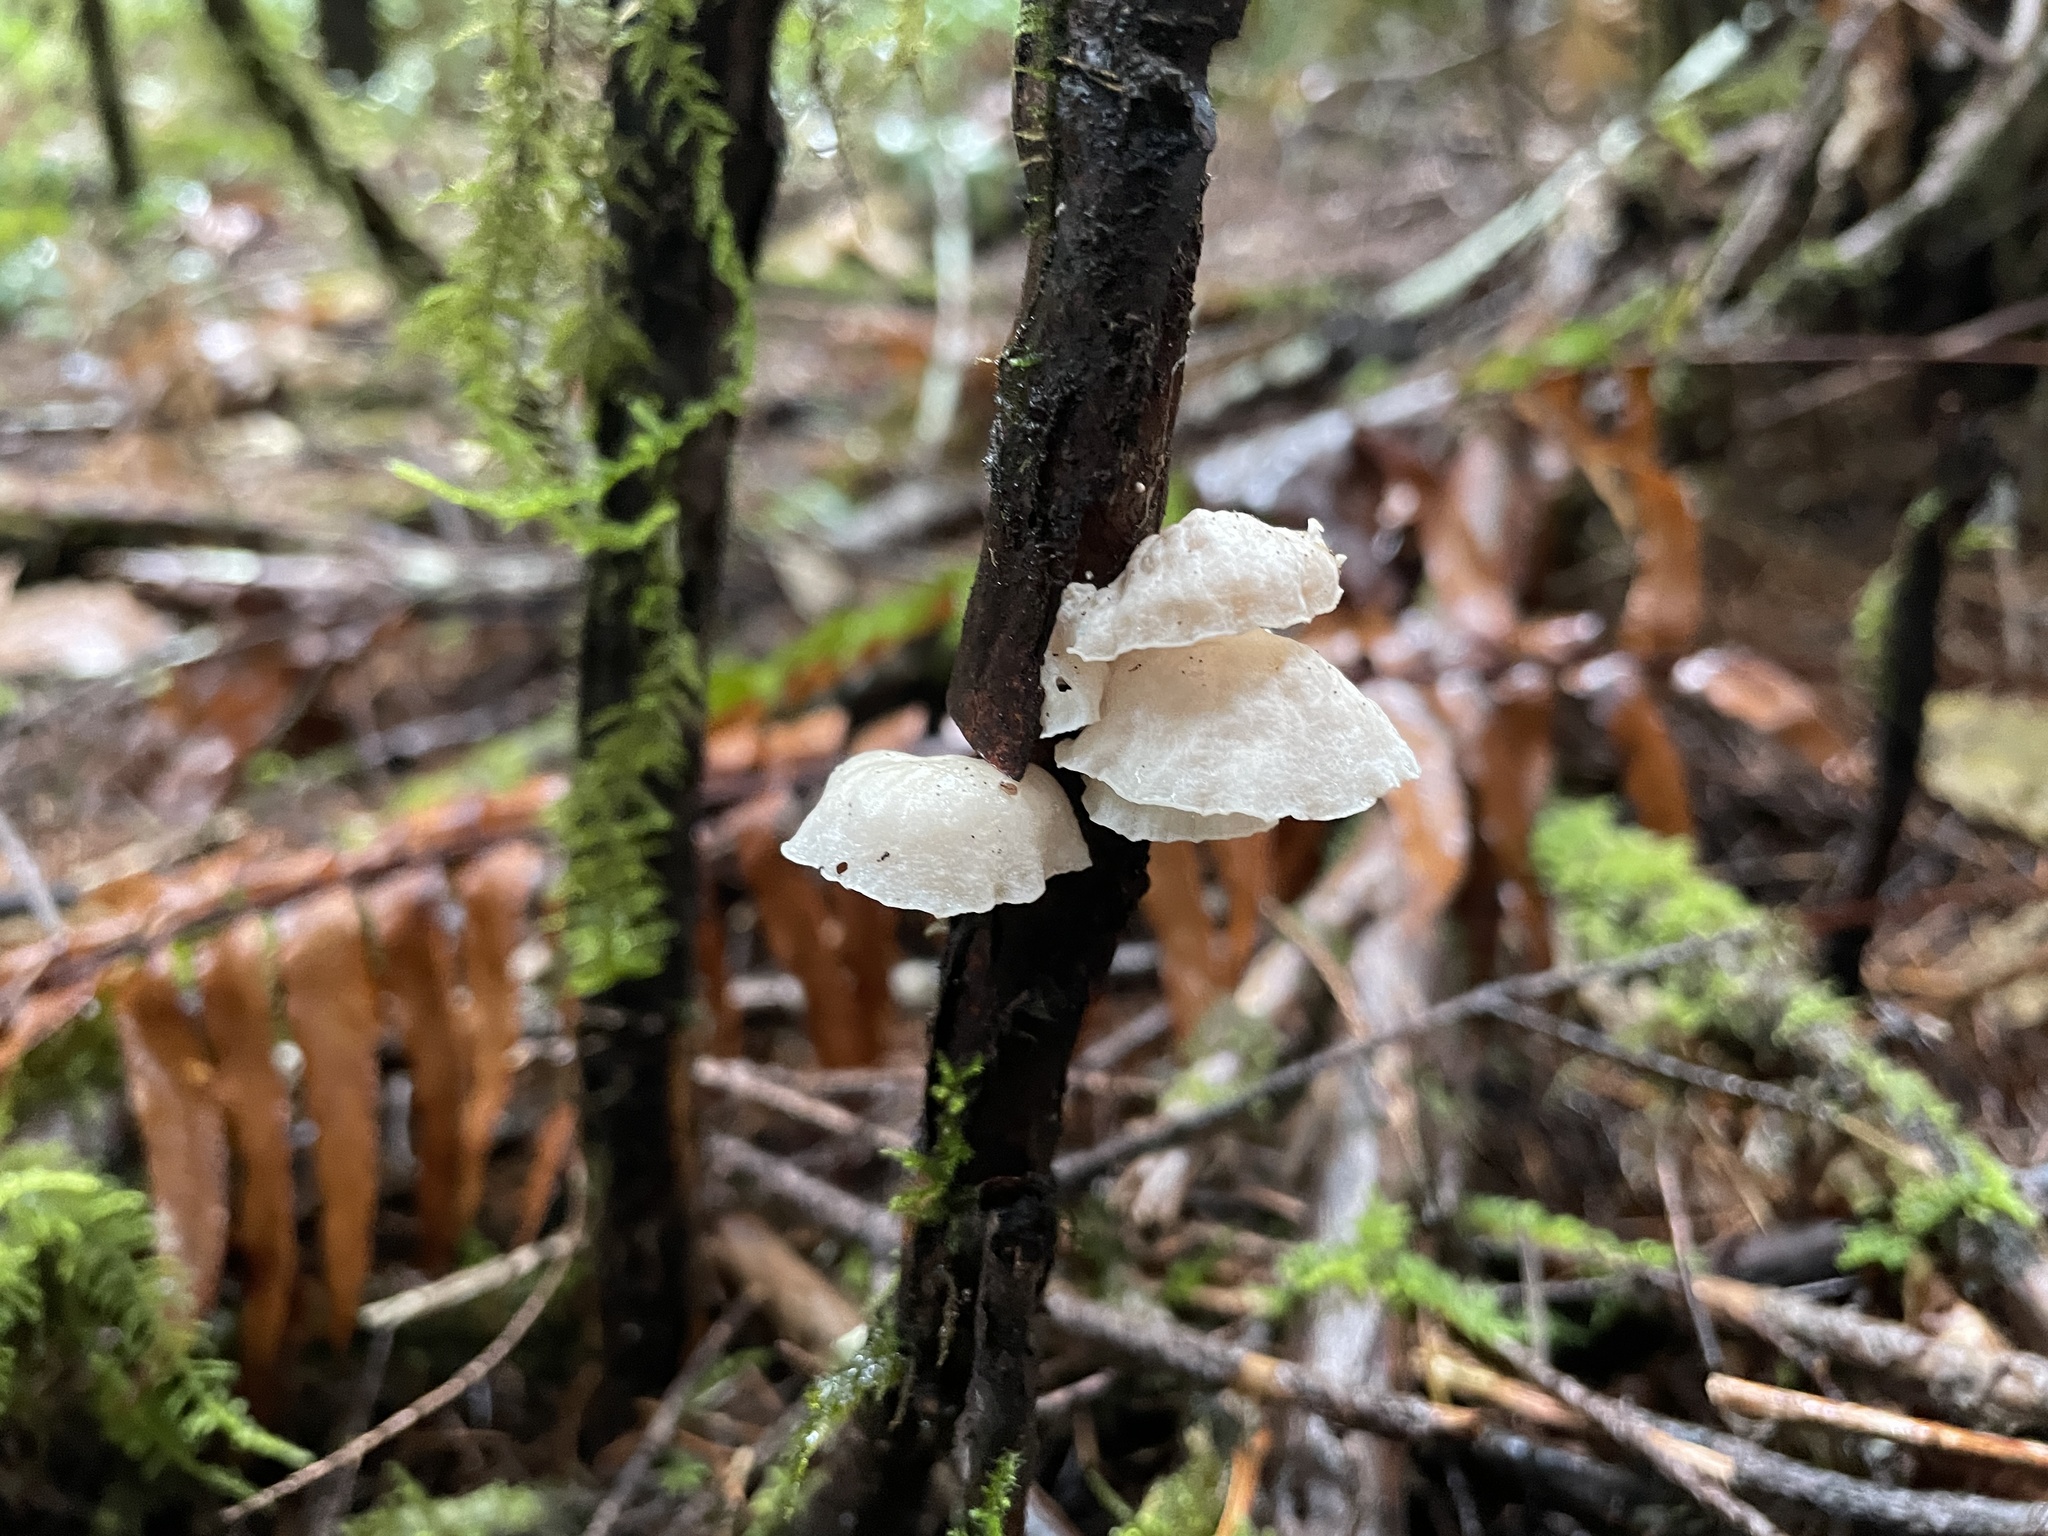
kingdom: Fungi
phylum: Basidiomycota
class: Agaricomycetes
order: Agaricales
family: Omphalotaceae
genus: Marasmiellus
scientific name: Marasmiellus candidus
